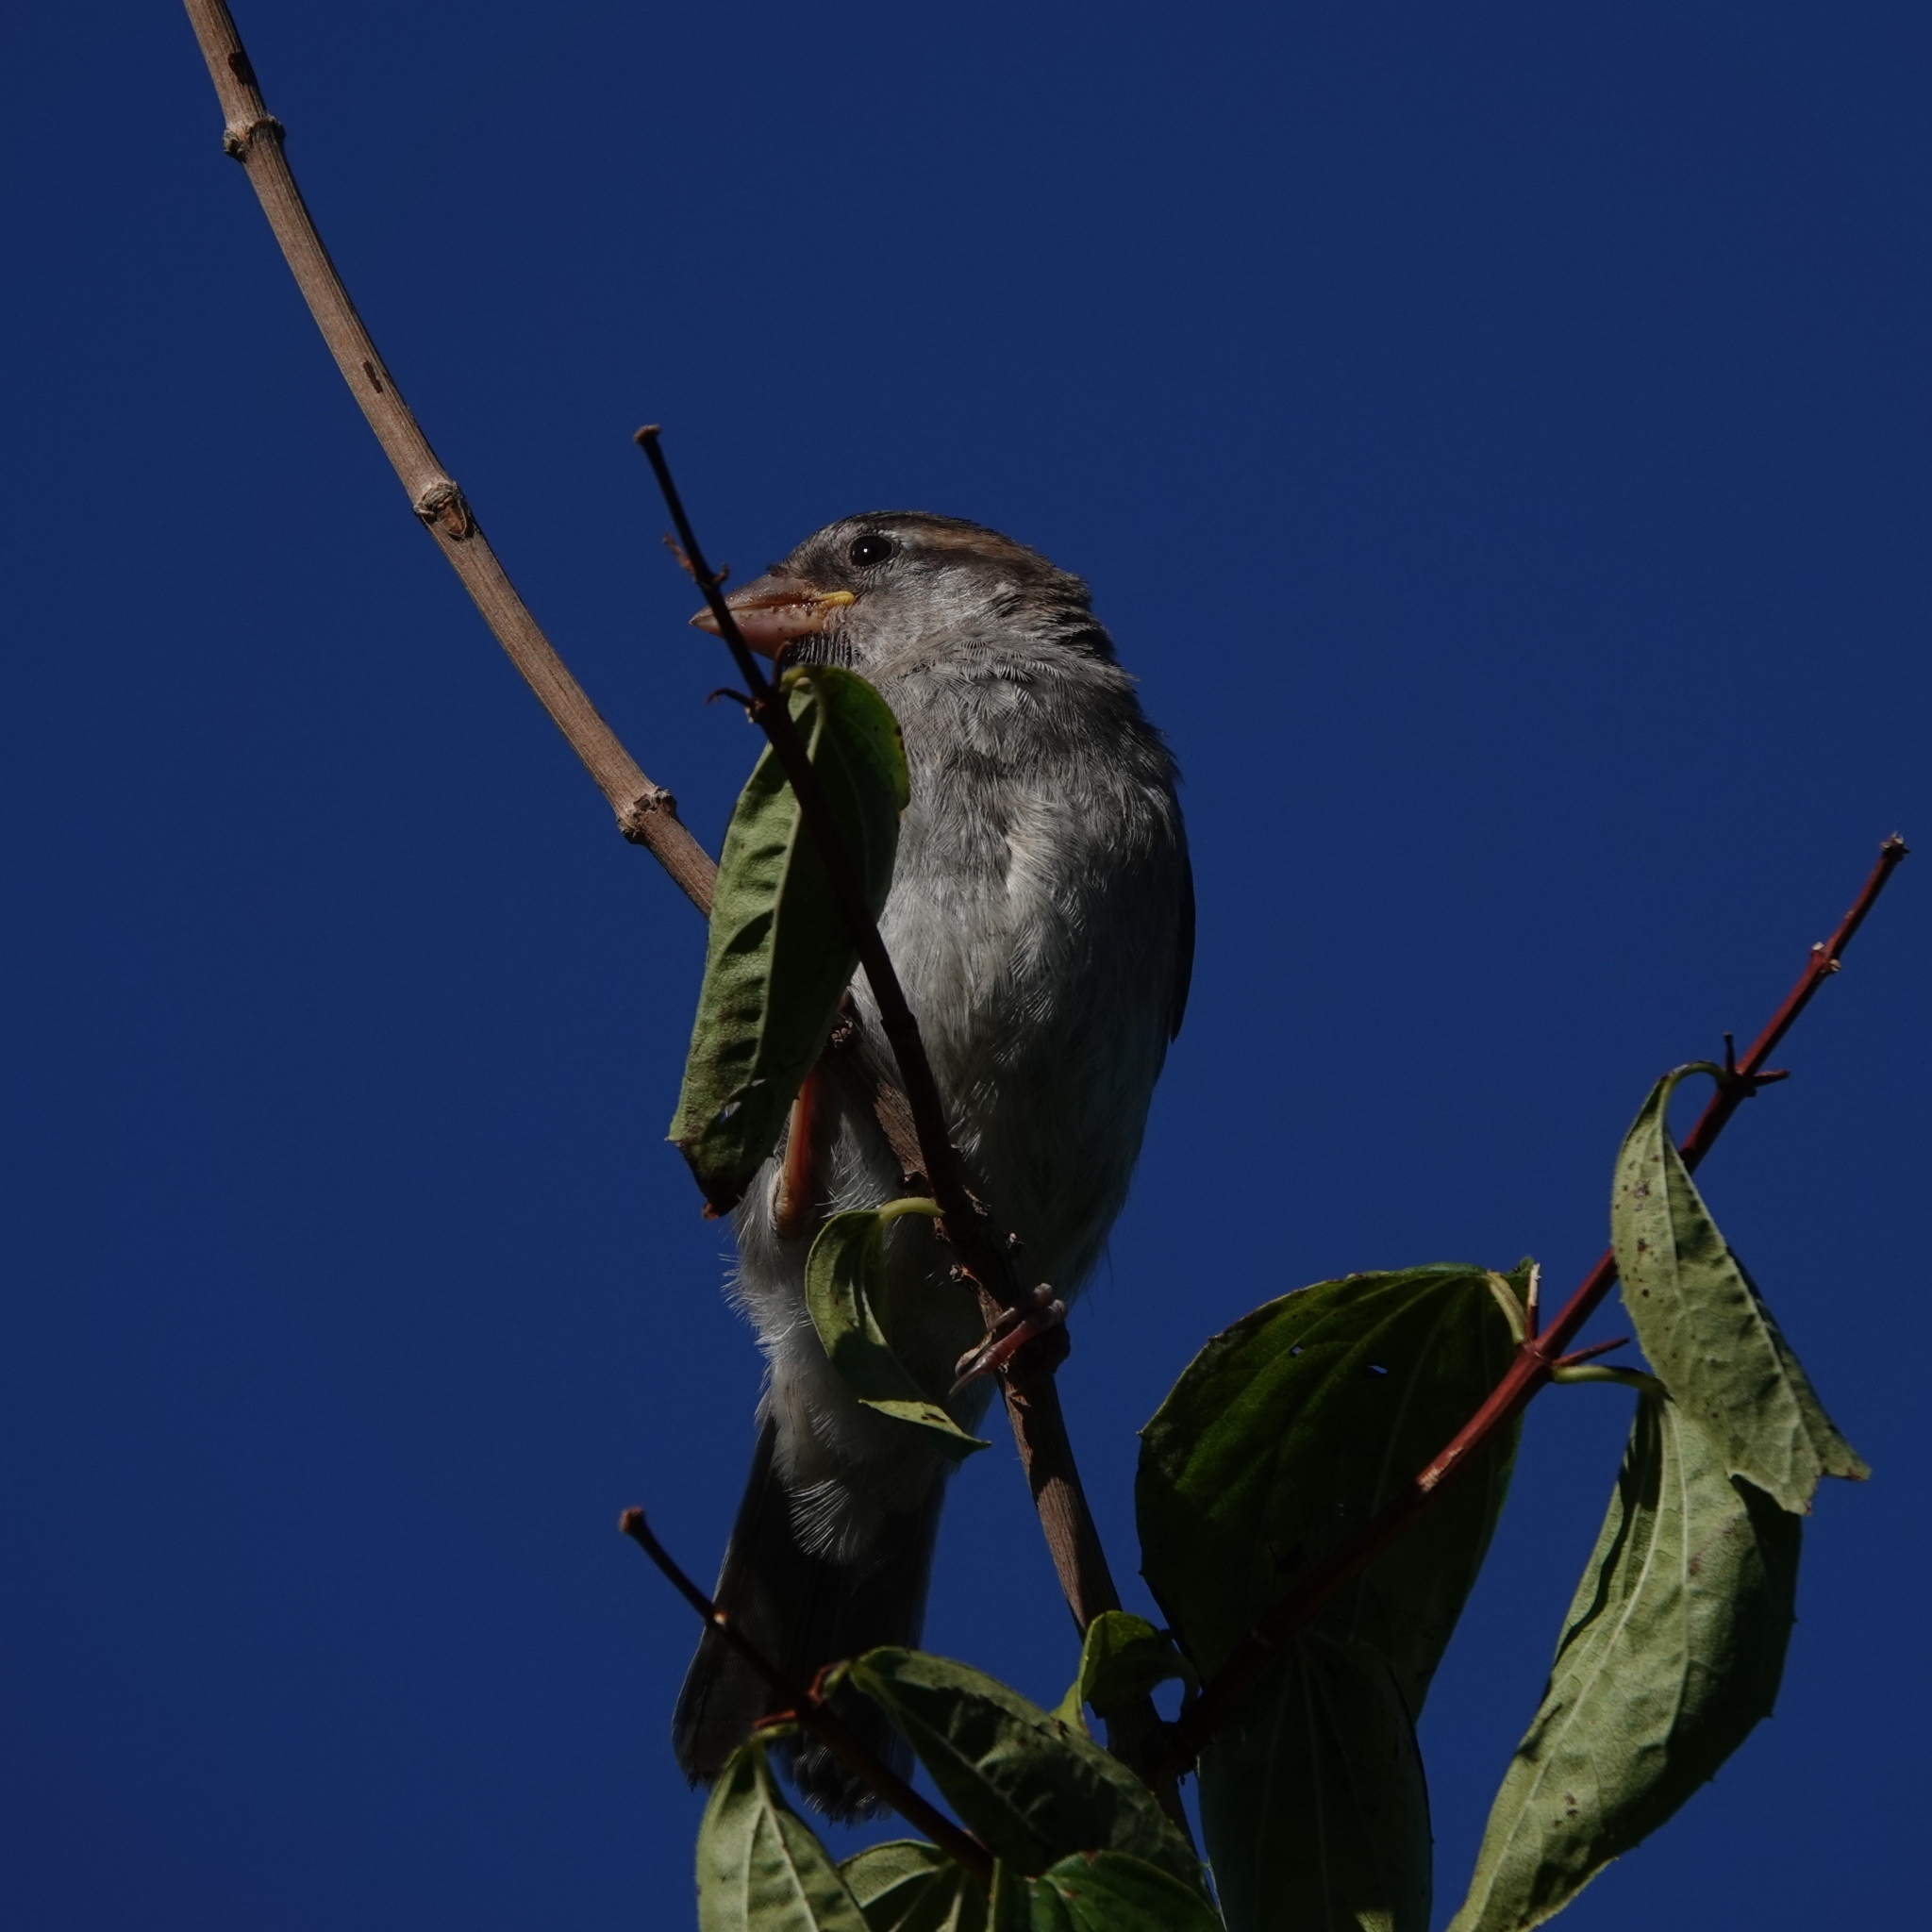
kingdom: Animalia
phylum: Chordata
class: Aves
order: Passeriformes
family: Passeridae
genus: Passer
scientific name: Passer domesticus
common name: House sparrow
